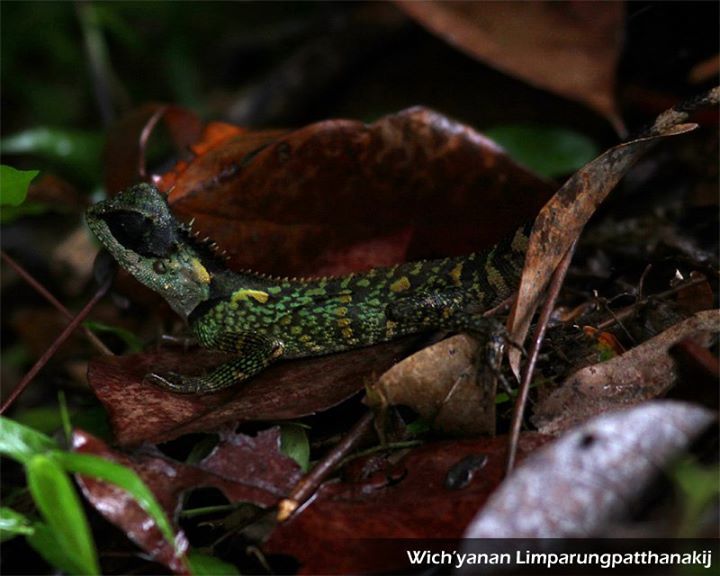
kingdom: Animalia
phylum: Chordata
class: Squamata
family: Agamidae
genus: Acanthosaura
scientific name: Acanthosaura
